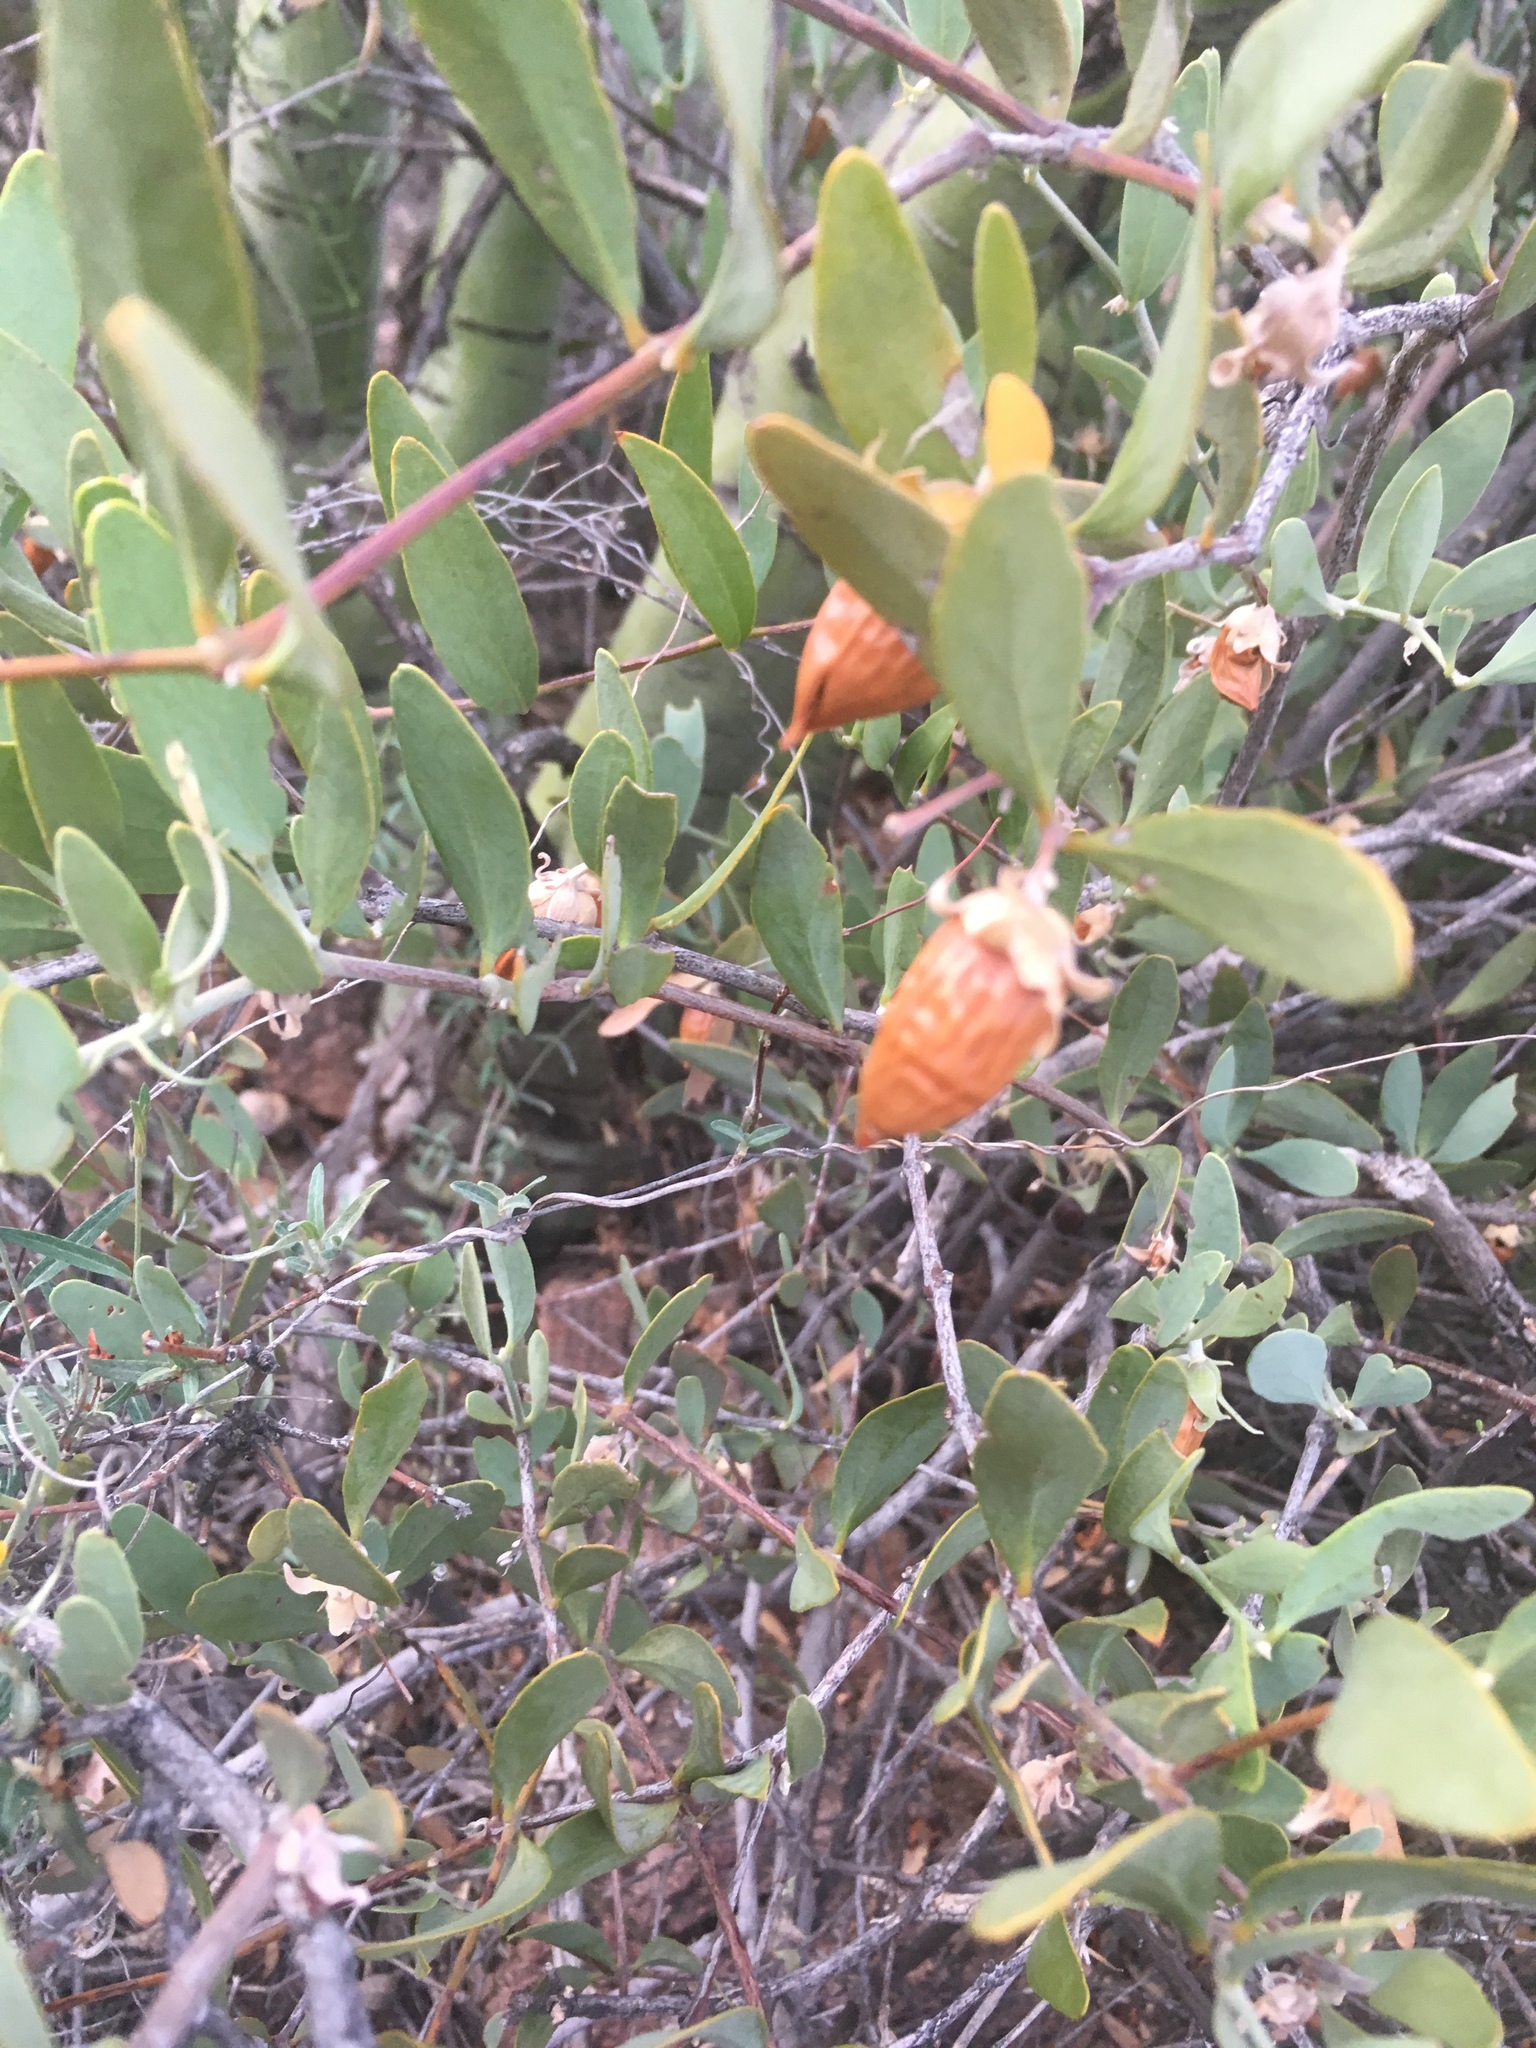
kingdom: Plantae
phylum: Tracheophyta
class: Magnoliopsida
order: Caryophyllales
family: Simmondsiaceae
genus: Simmondsia
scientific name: Simmondsia chinensis
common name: Jojoba
